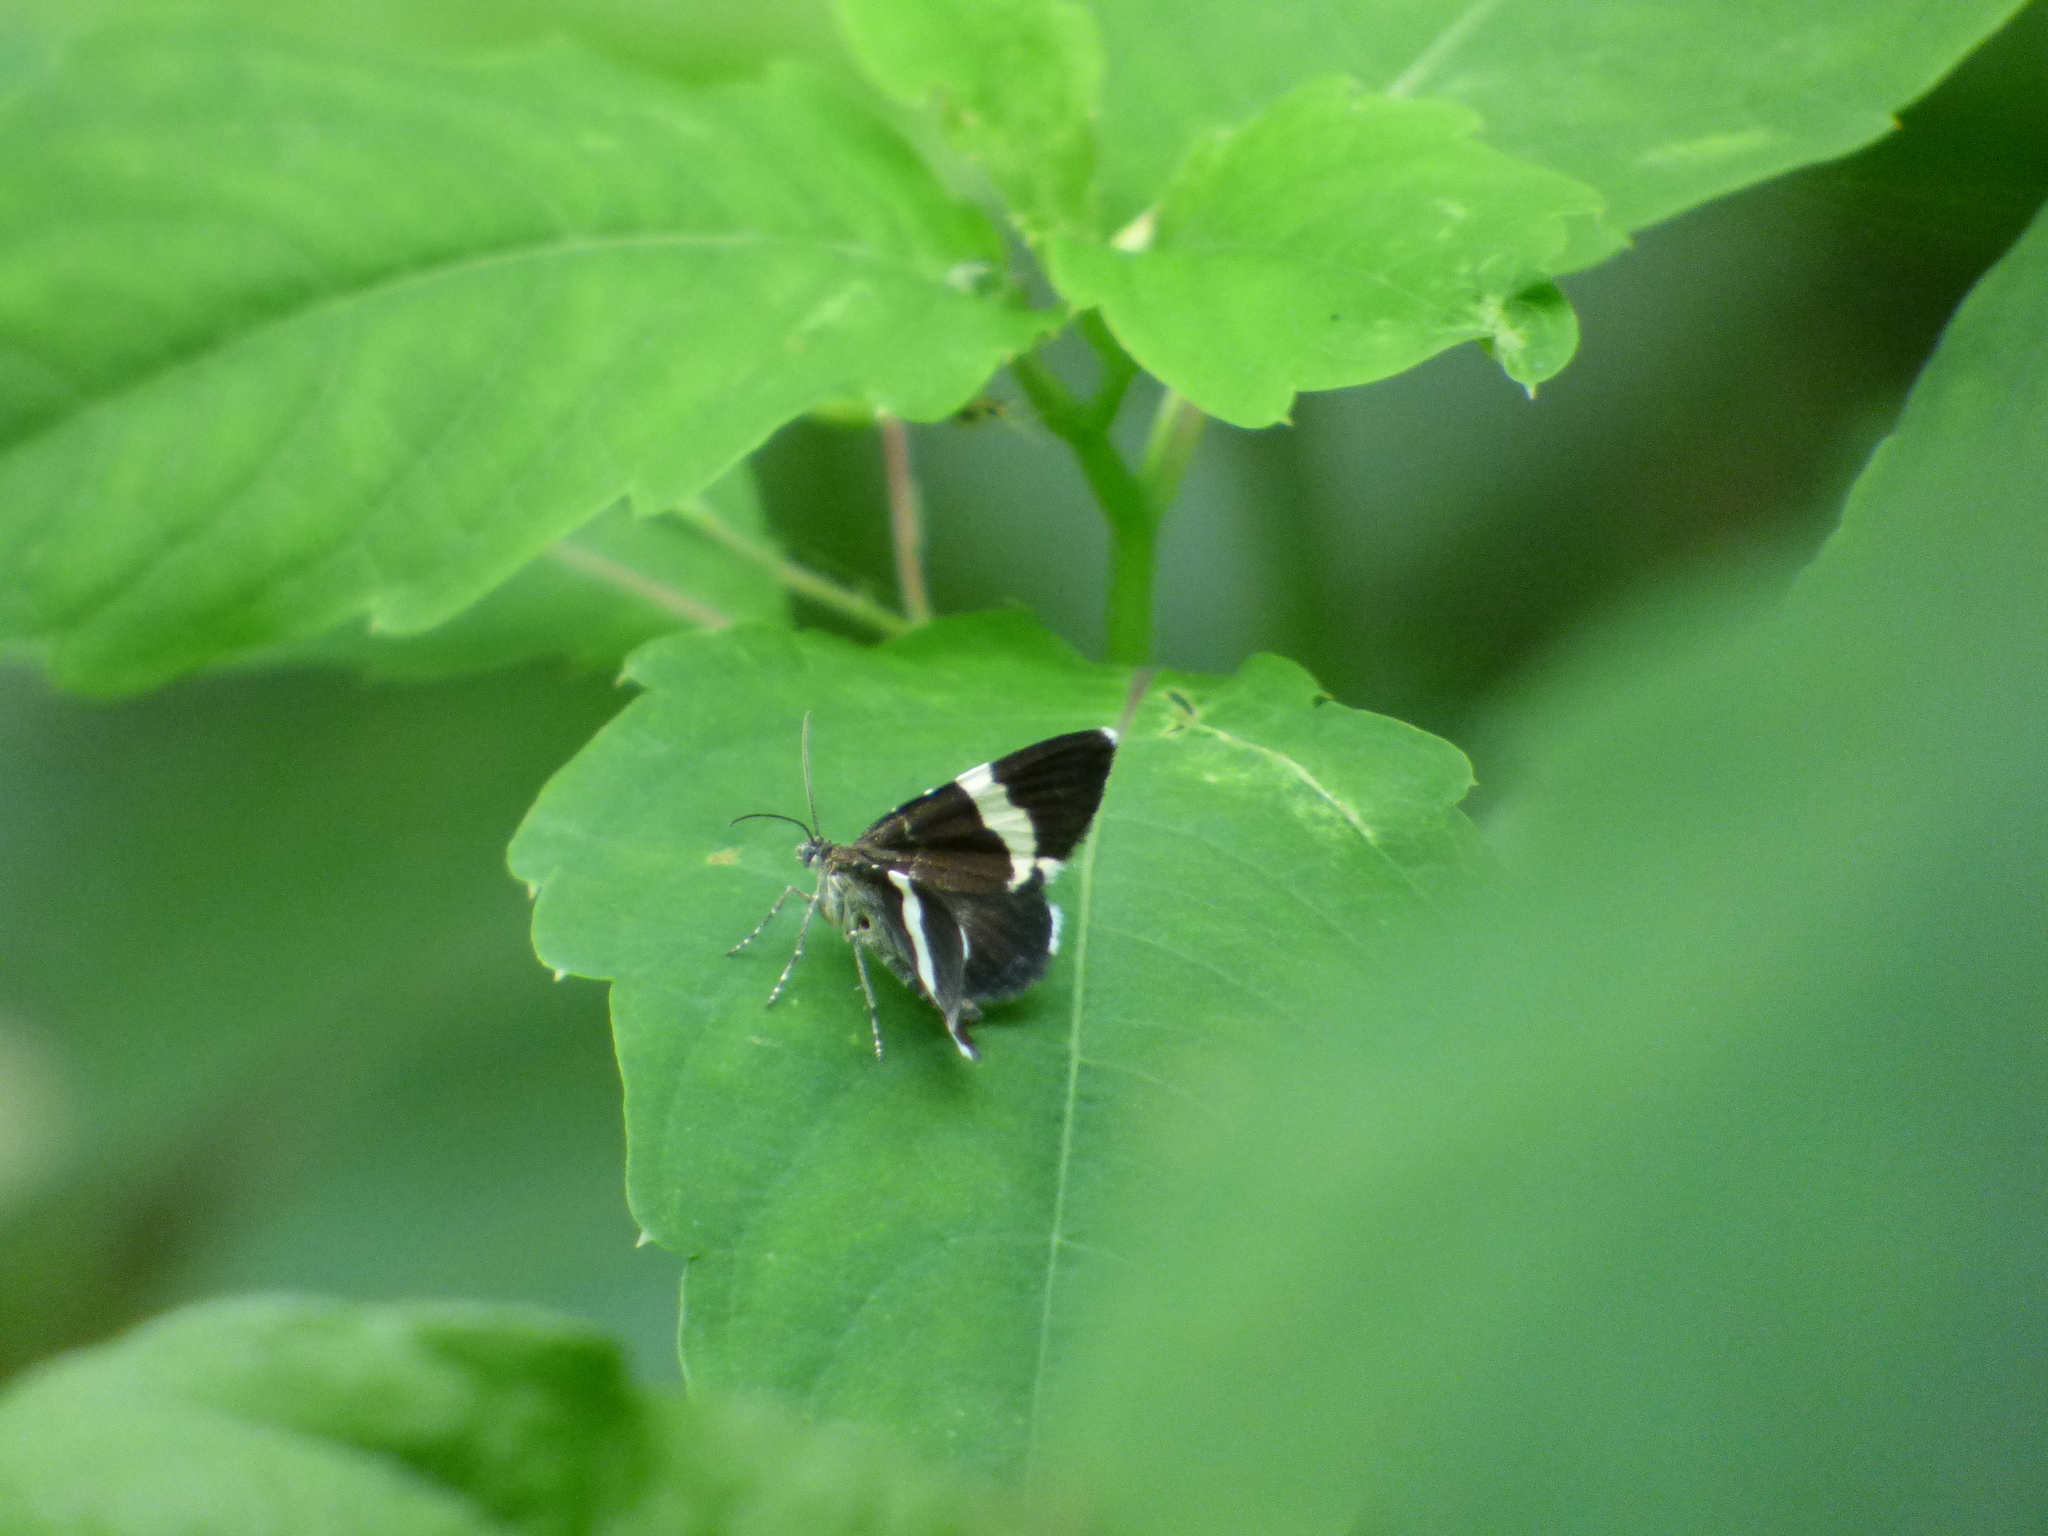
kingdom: Animalia
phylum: Arthropoda
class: Insecta
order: Lepidoptera
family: Geometridae
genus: Trichodezia
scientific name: Trichodezia albovittata
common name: White striped black
